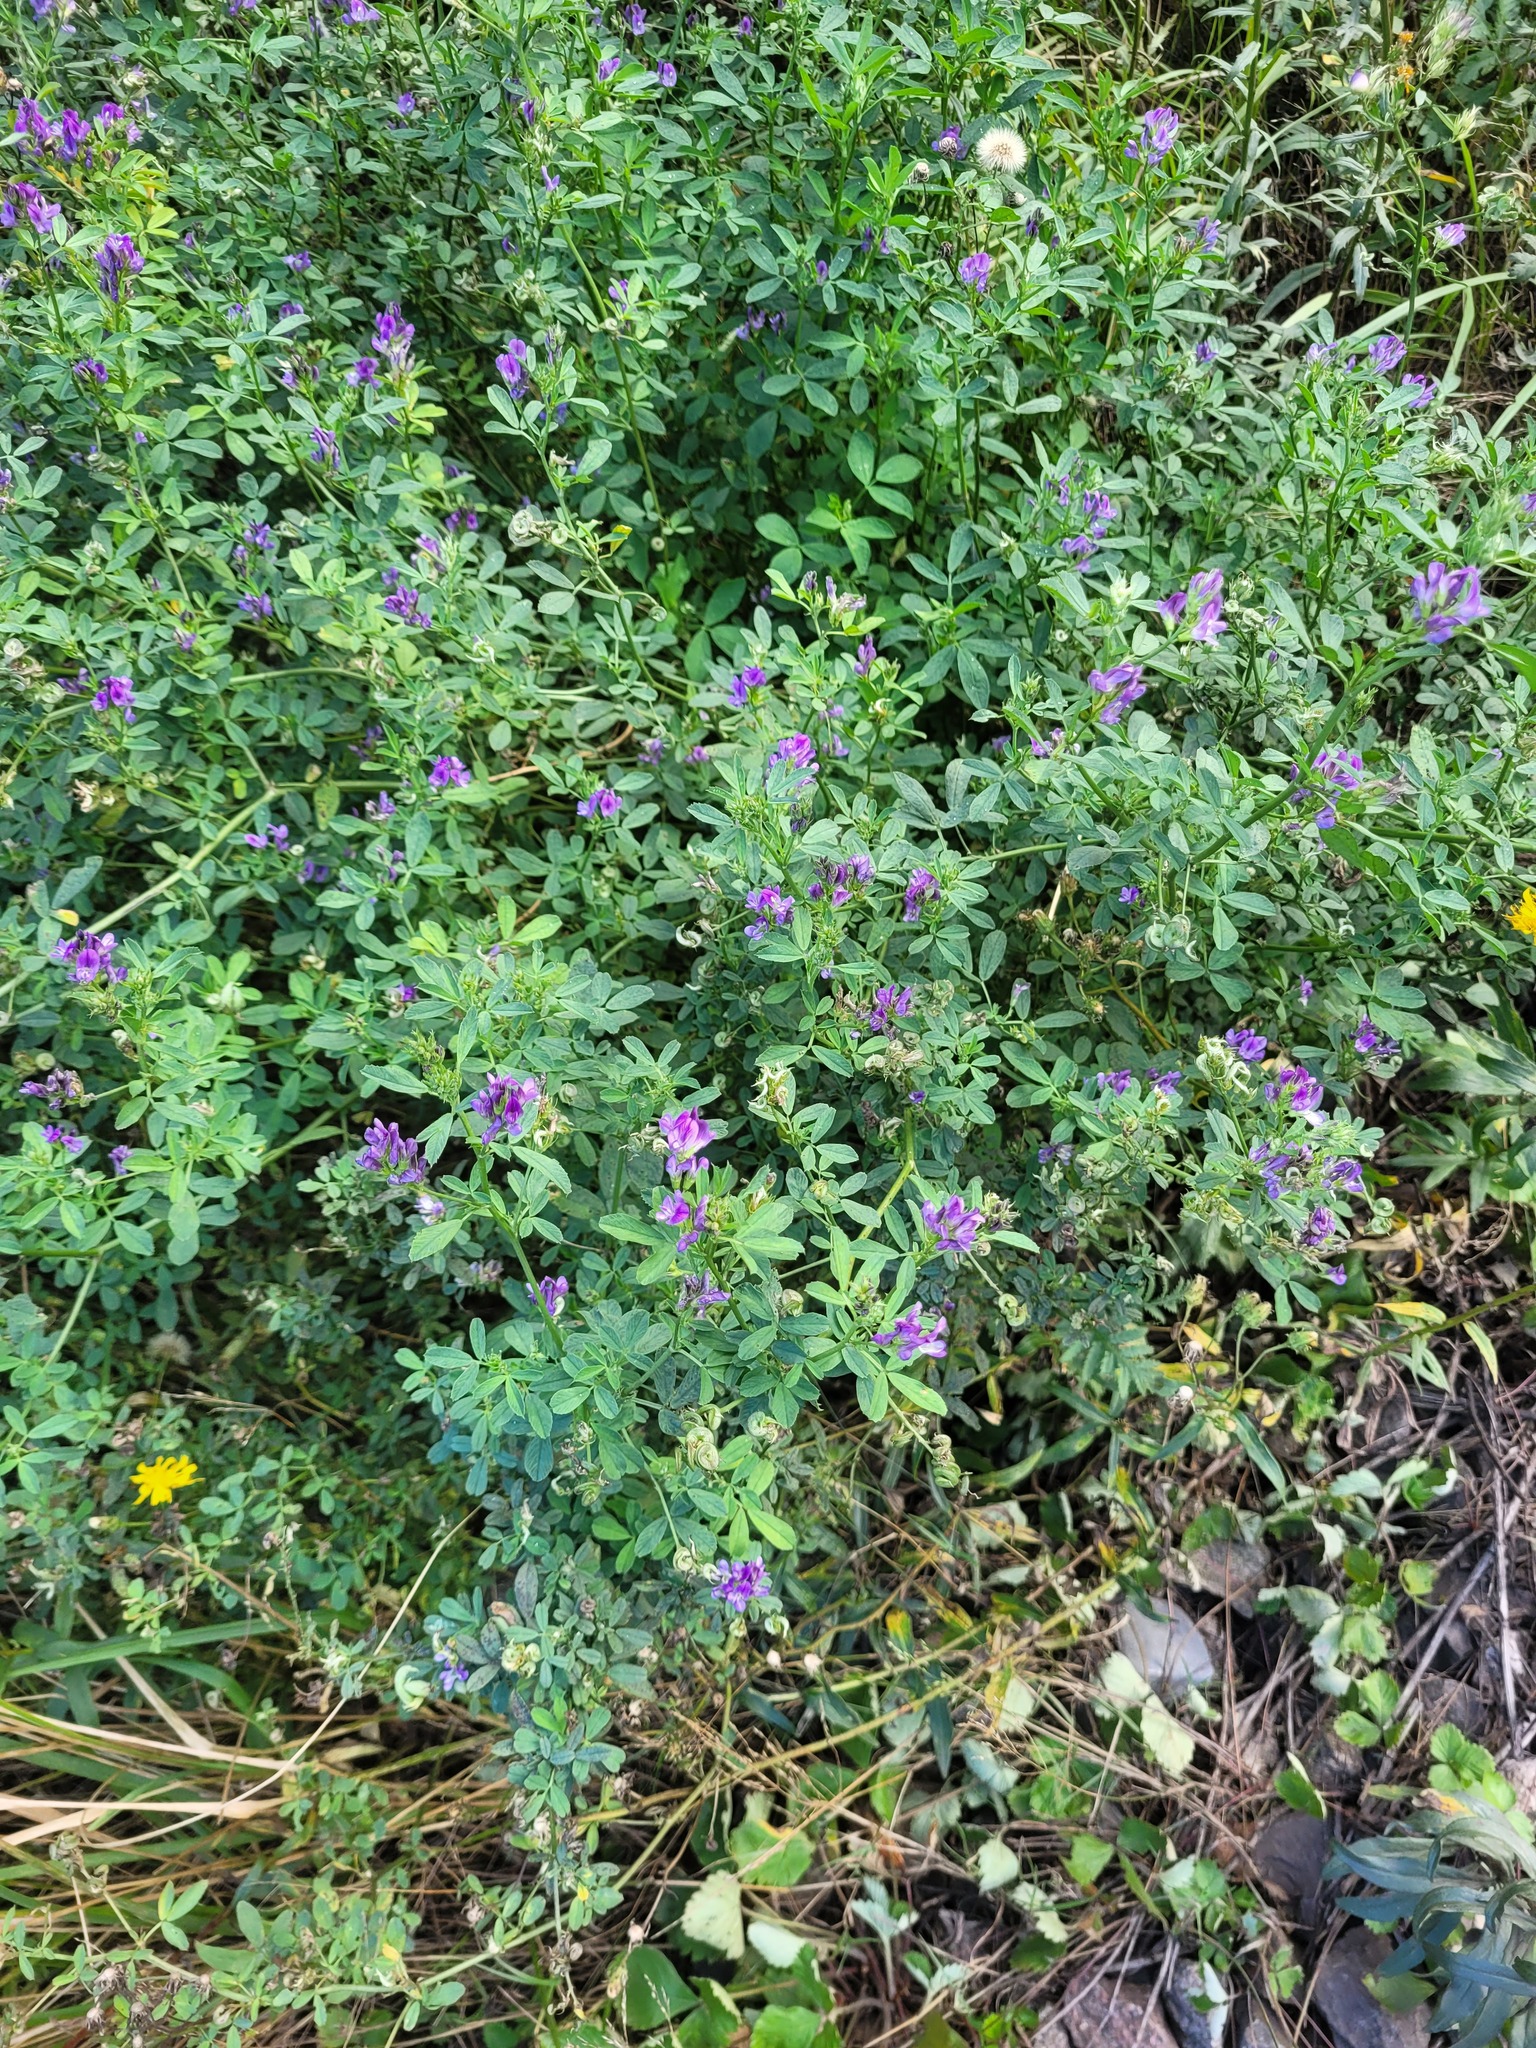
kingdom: Plantae
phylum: Tracheophyta
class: Magnoliopsida
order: Fabales
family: Fabaceae
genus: Medicago
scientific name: Medicago sativa
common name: Alfalfa
